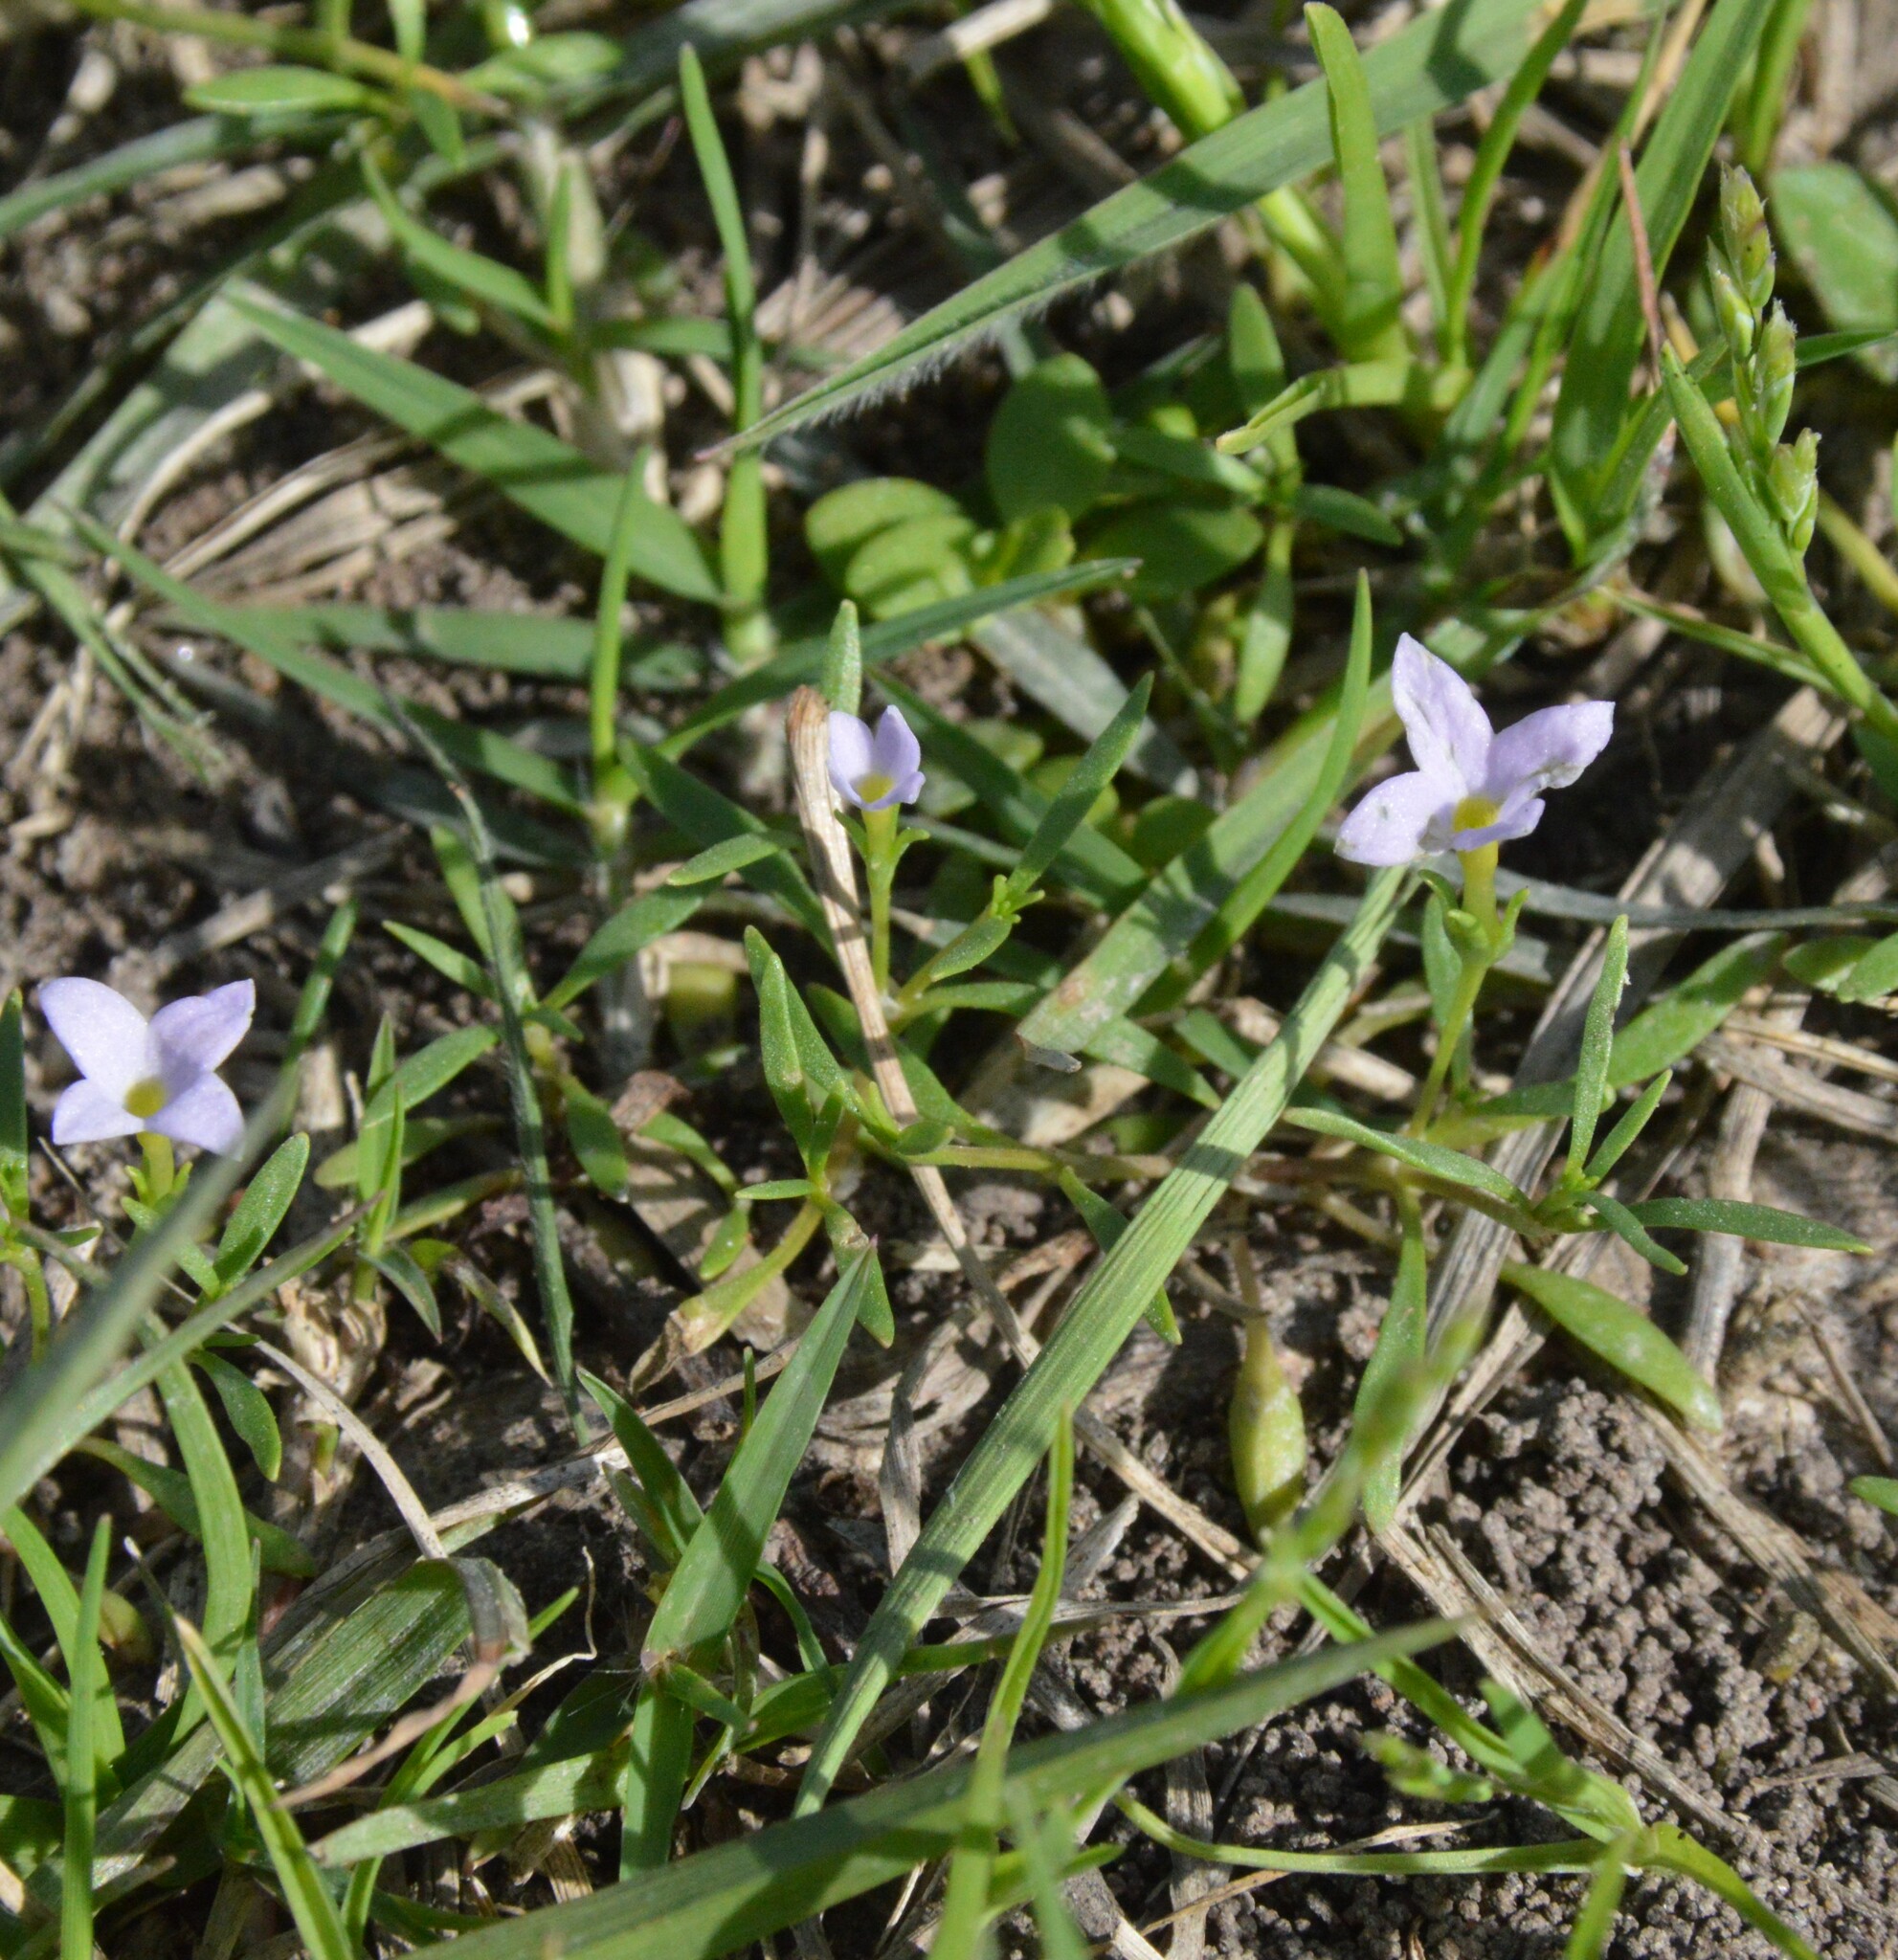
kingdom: Plantae
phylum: Tracheophyta
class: Magnoliopsida
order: Gentianales
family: Rubiaceae
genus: Houstonia
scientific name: Houstonia rosea
